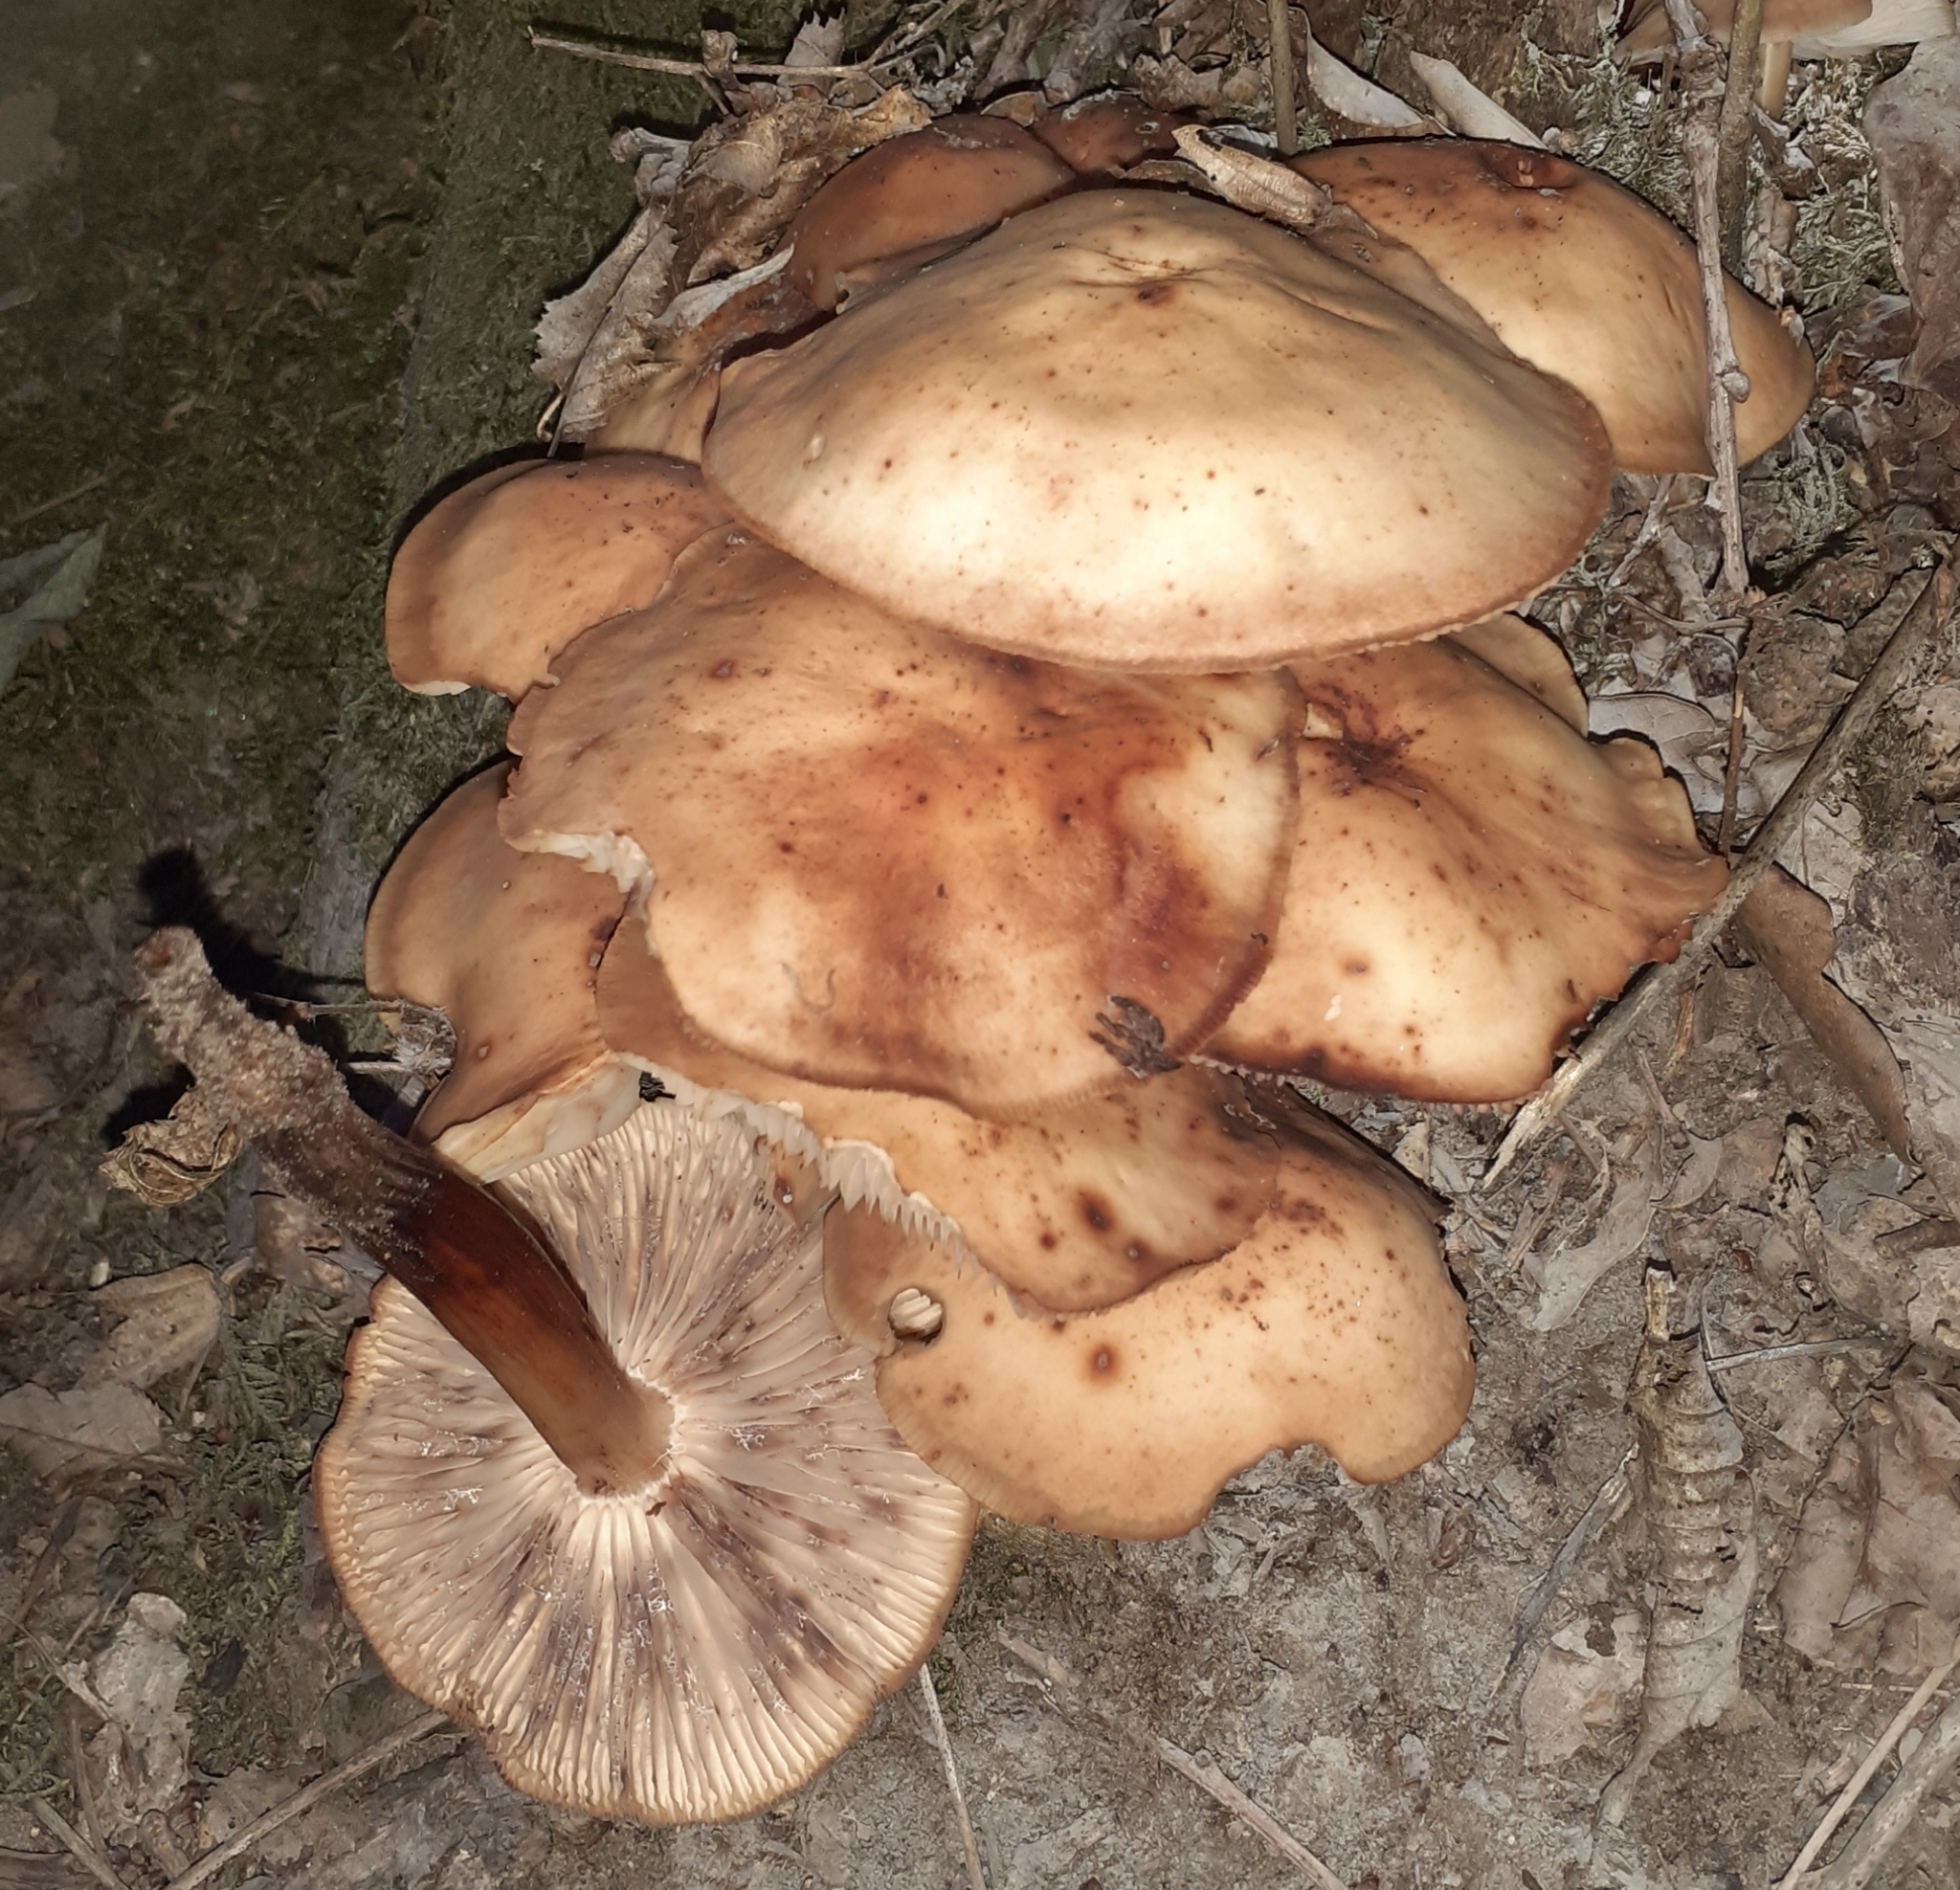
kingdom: Fungi
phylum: Basidiomycota
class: Agaricomycetes
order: Agaricales
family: Omphalotaceae
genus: Gymnopus
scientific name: Gymnopus fusipes
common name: Spindle shank
